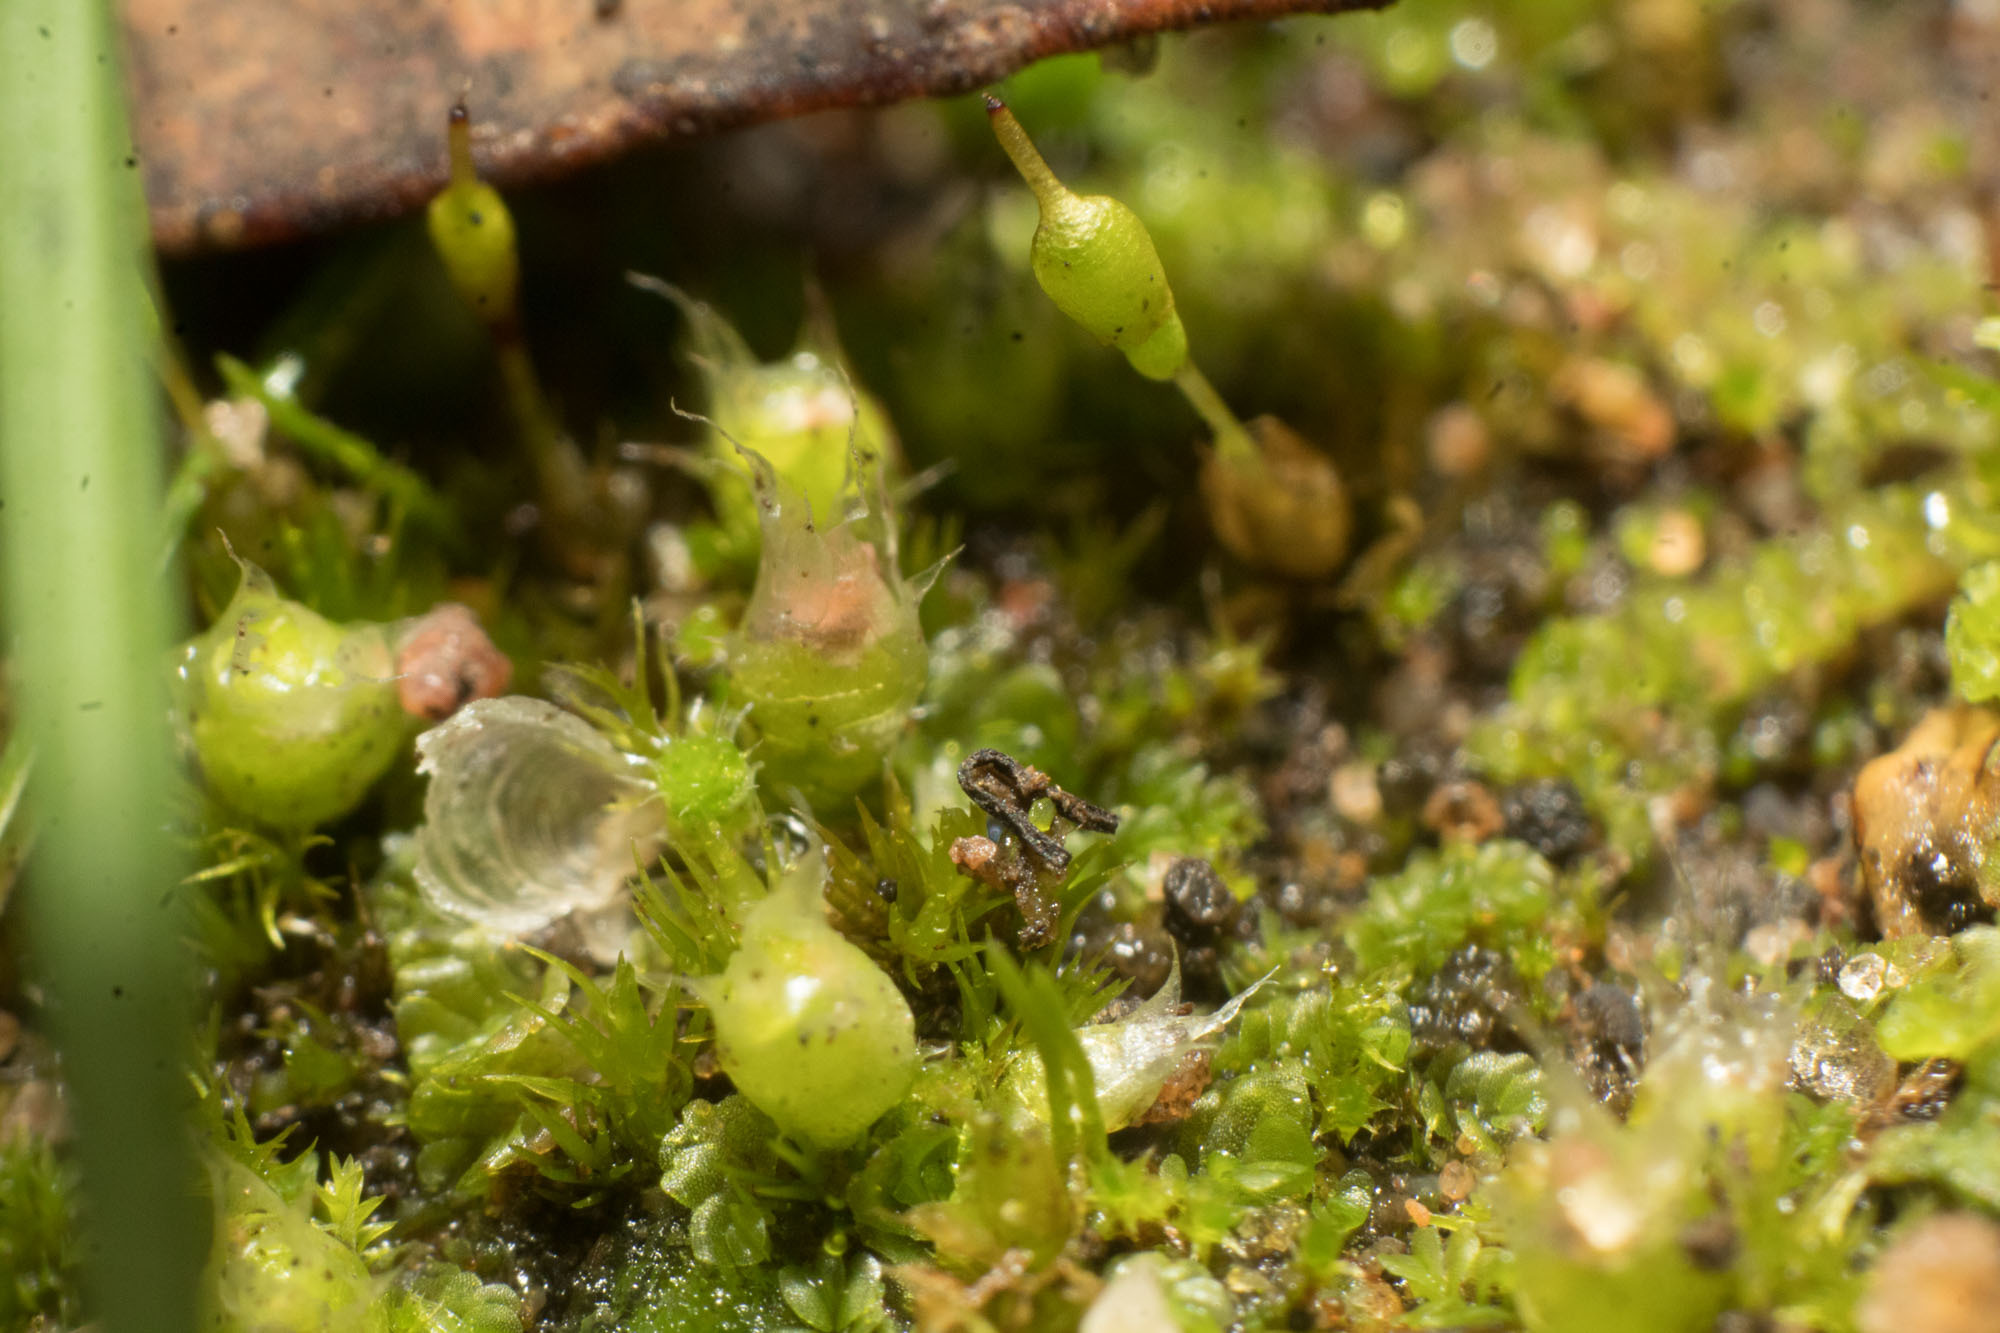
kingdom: Plantae
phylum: Bryophyta
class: Bryopsida
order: Gigaspermales
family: Gigaspermaceae
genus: Gigaspermum
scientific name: Gigaspermum repens
